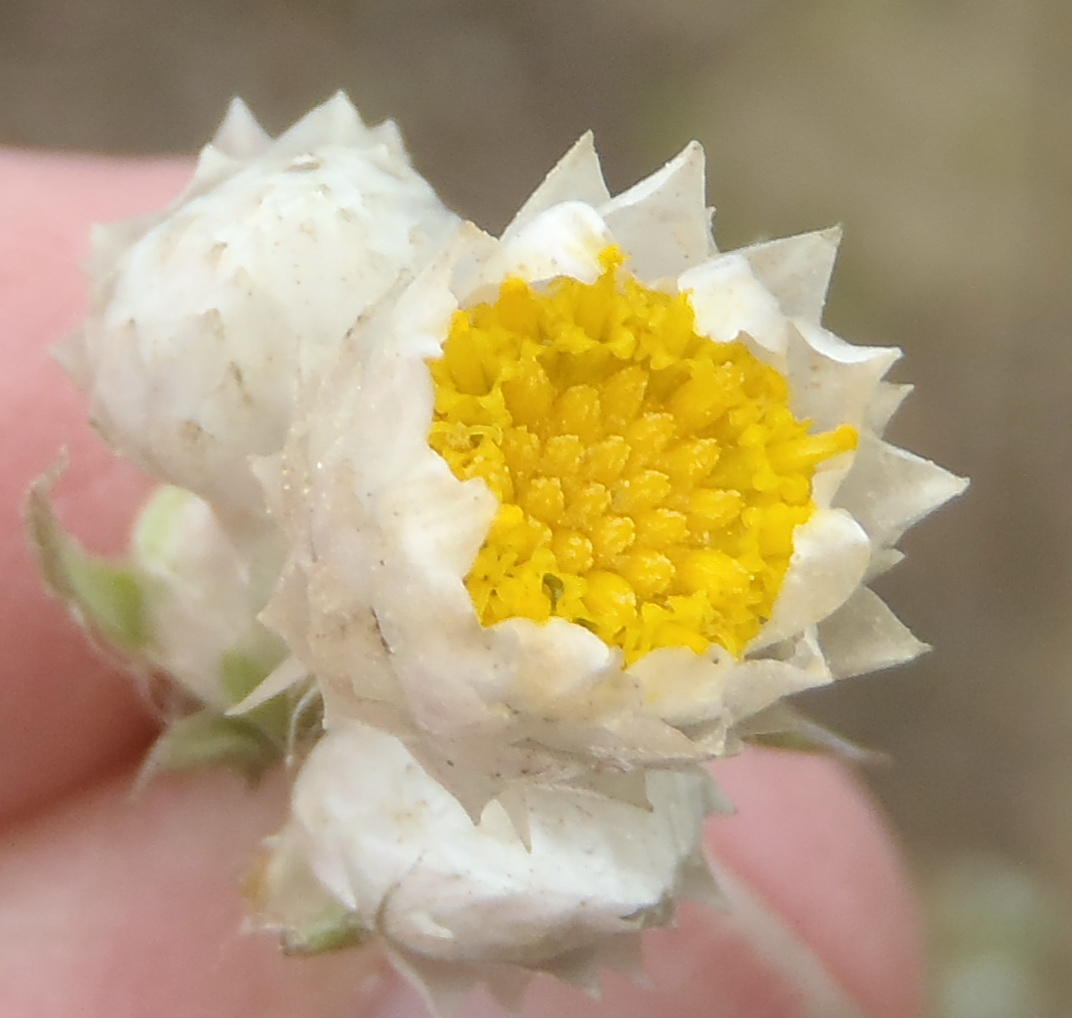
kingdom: Plantae
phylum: Tracheophyta
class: Magnoliopsida
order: Asterales
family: Asteraceae
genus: Achyranthemum
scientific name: Achyranthemum paniculatum
